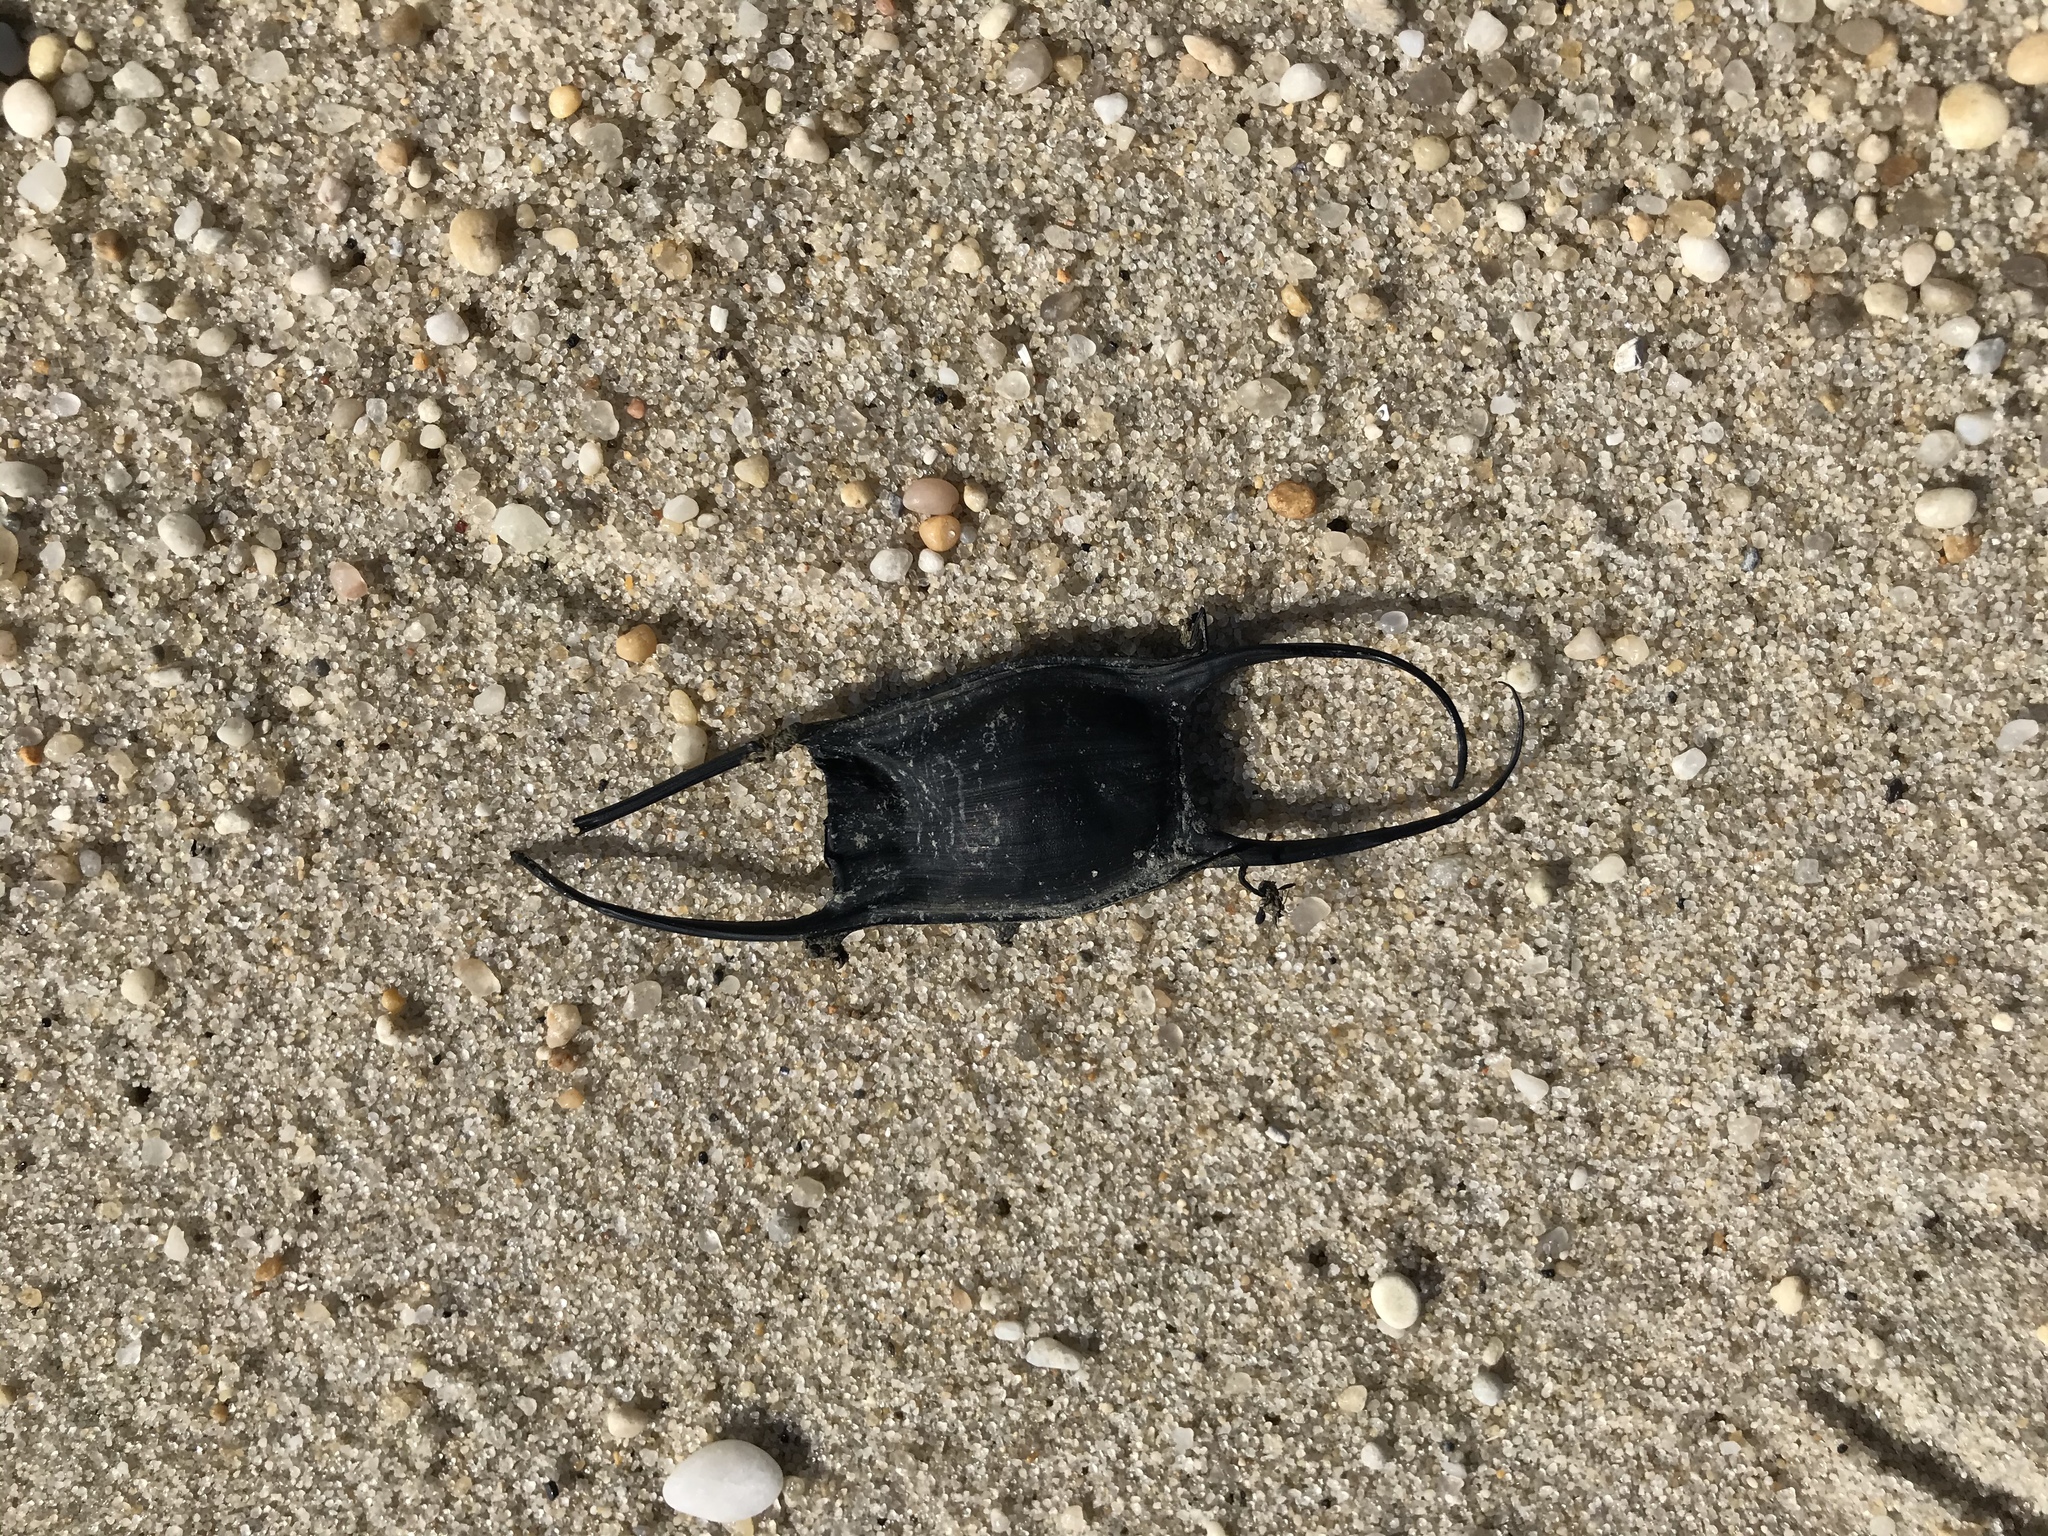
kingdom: Animalia
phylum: Chordata
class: Elasmobranchii
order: Rajiformes
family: Rajidae
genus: Leucoraja
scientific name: Leucoraja garmani
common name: Rosette skate
